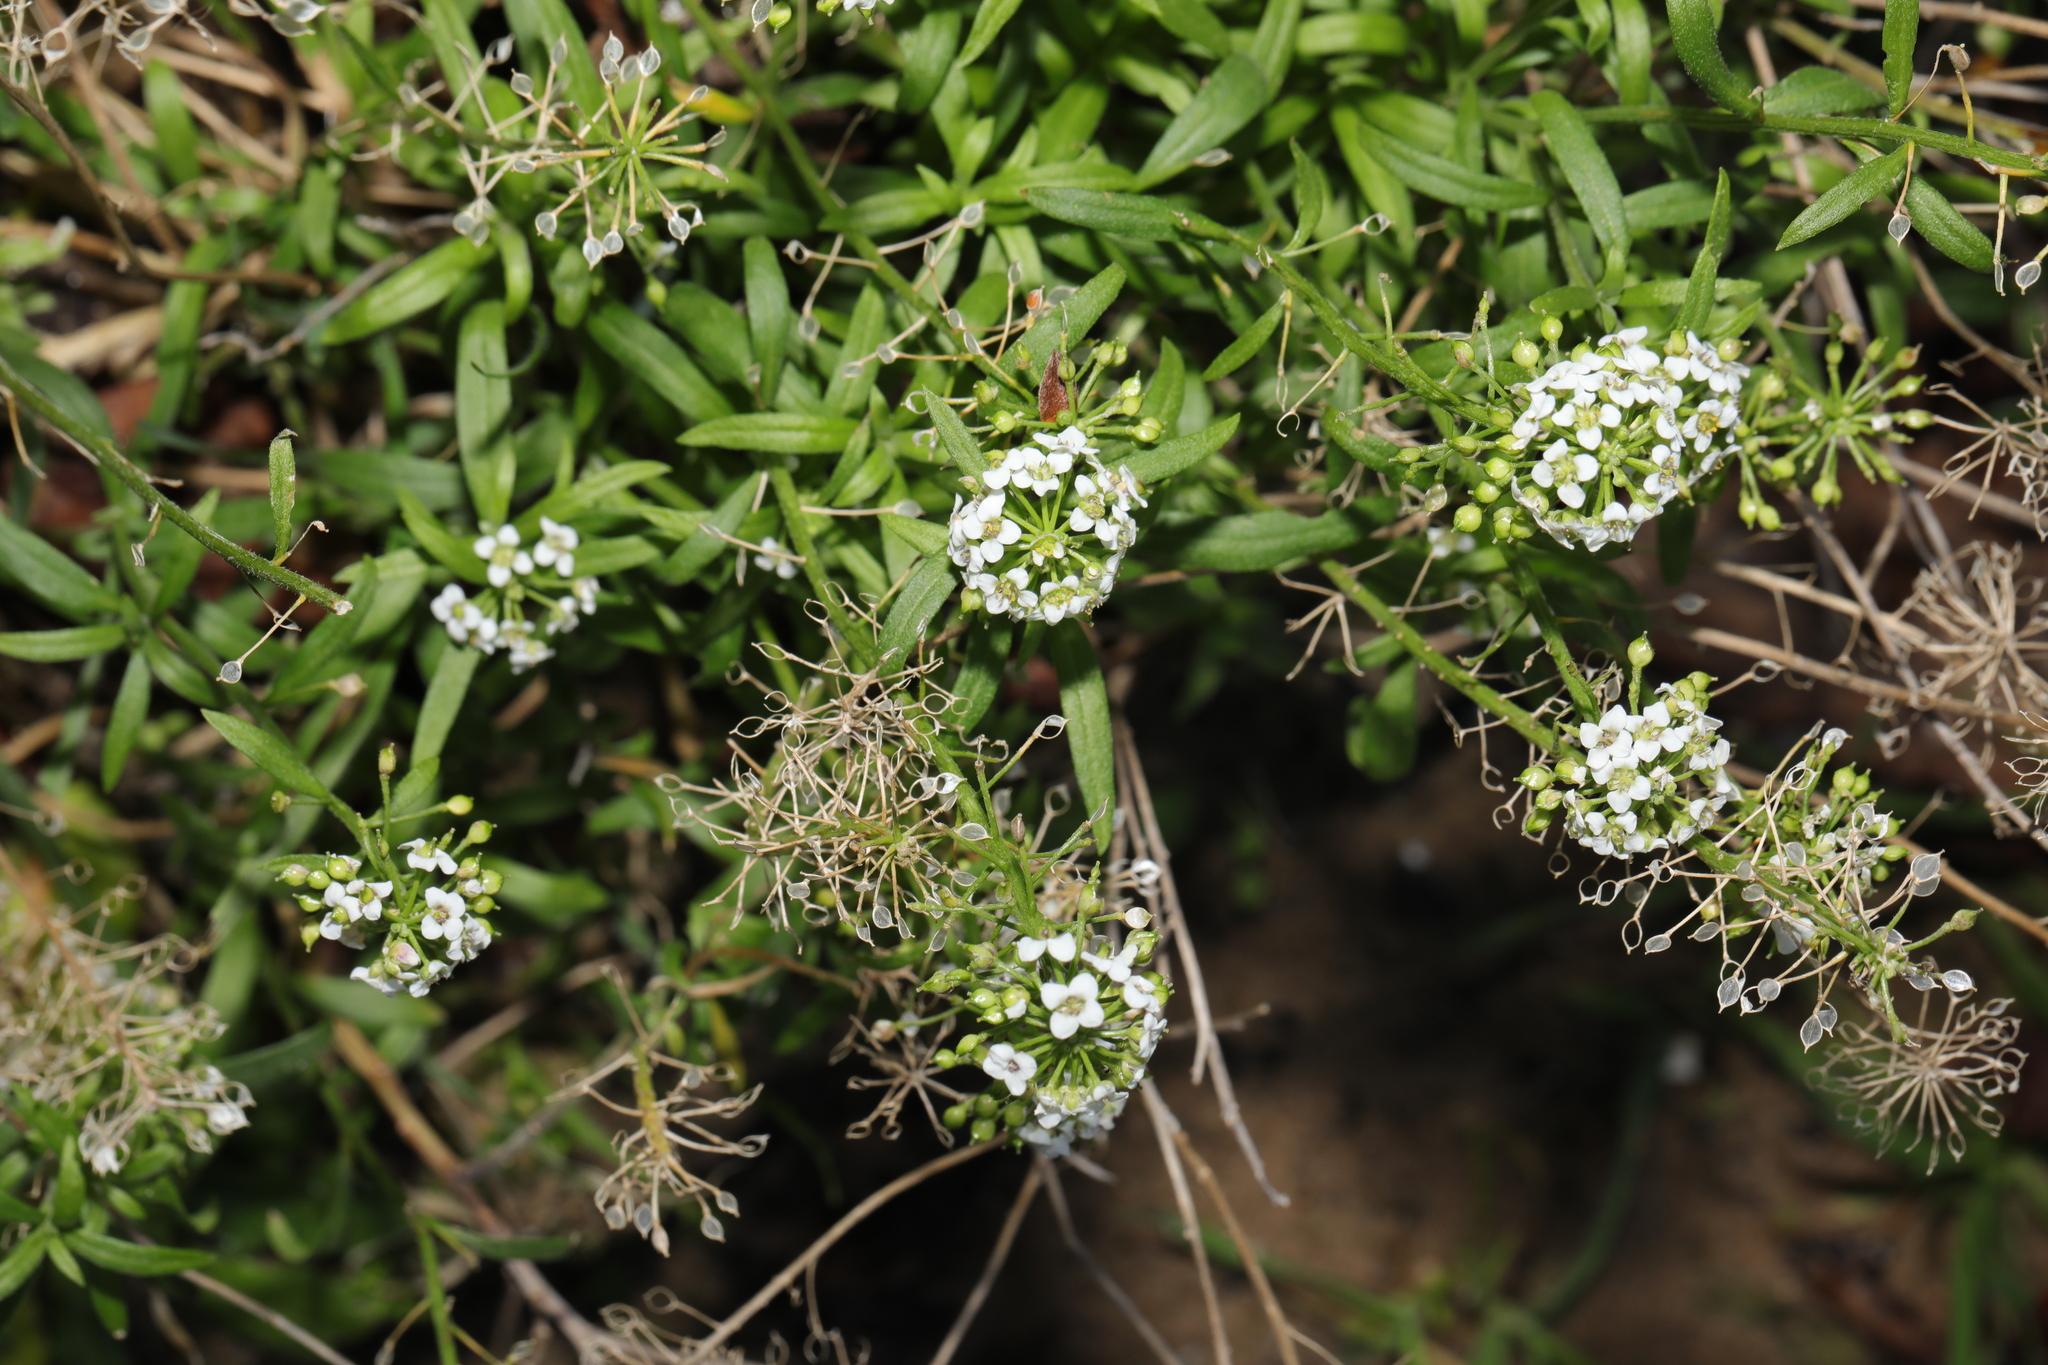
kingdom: Plantae
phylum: Tracheophyta
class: Magnoliopsida
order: Brassicales
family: Brassicaceae
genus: Lobularia
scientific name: Lobularia maritima
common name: Sweet alison
